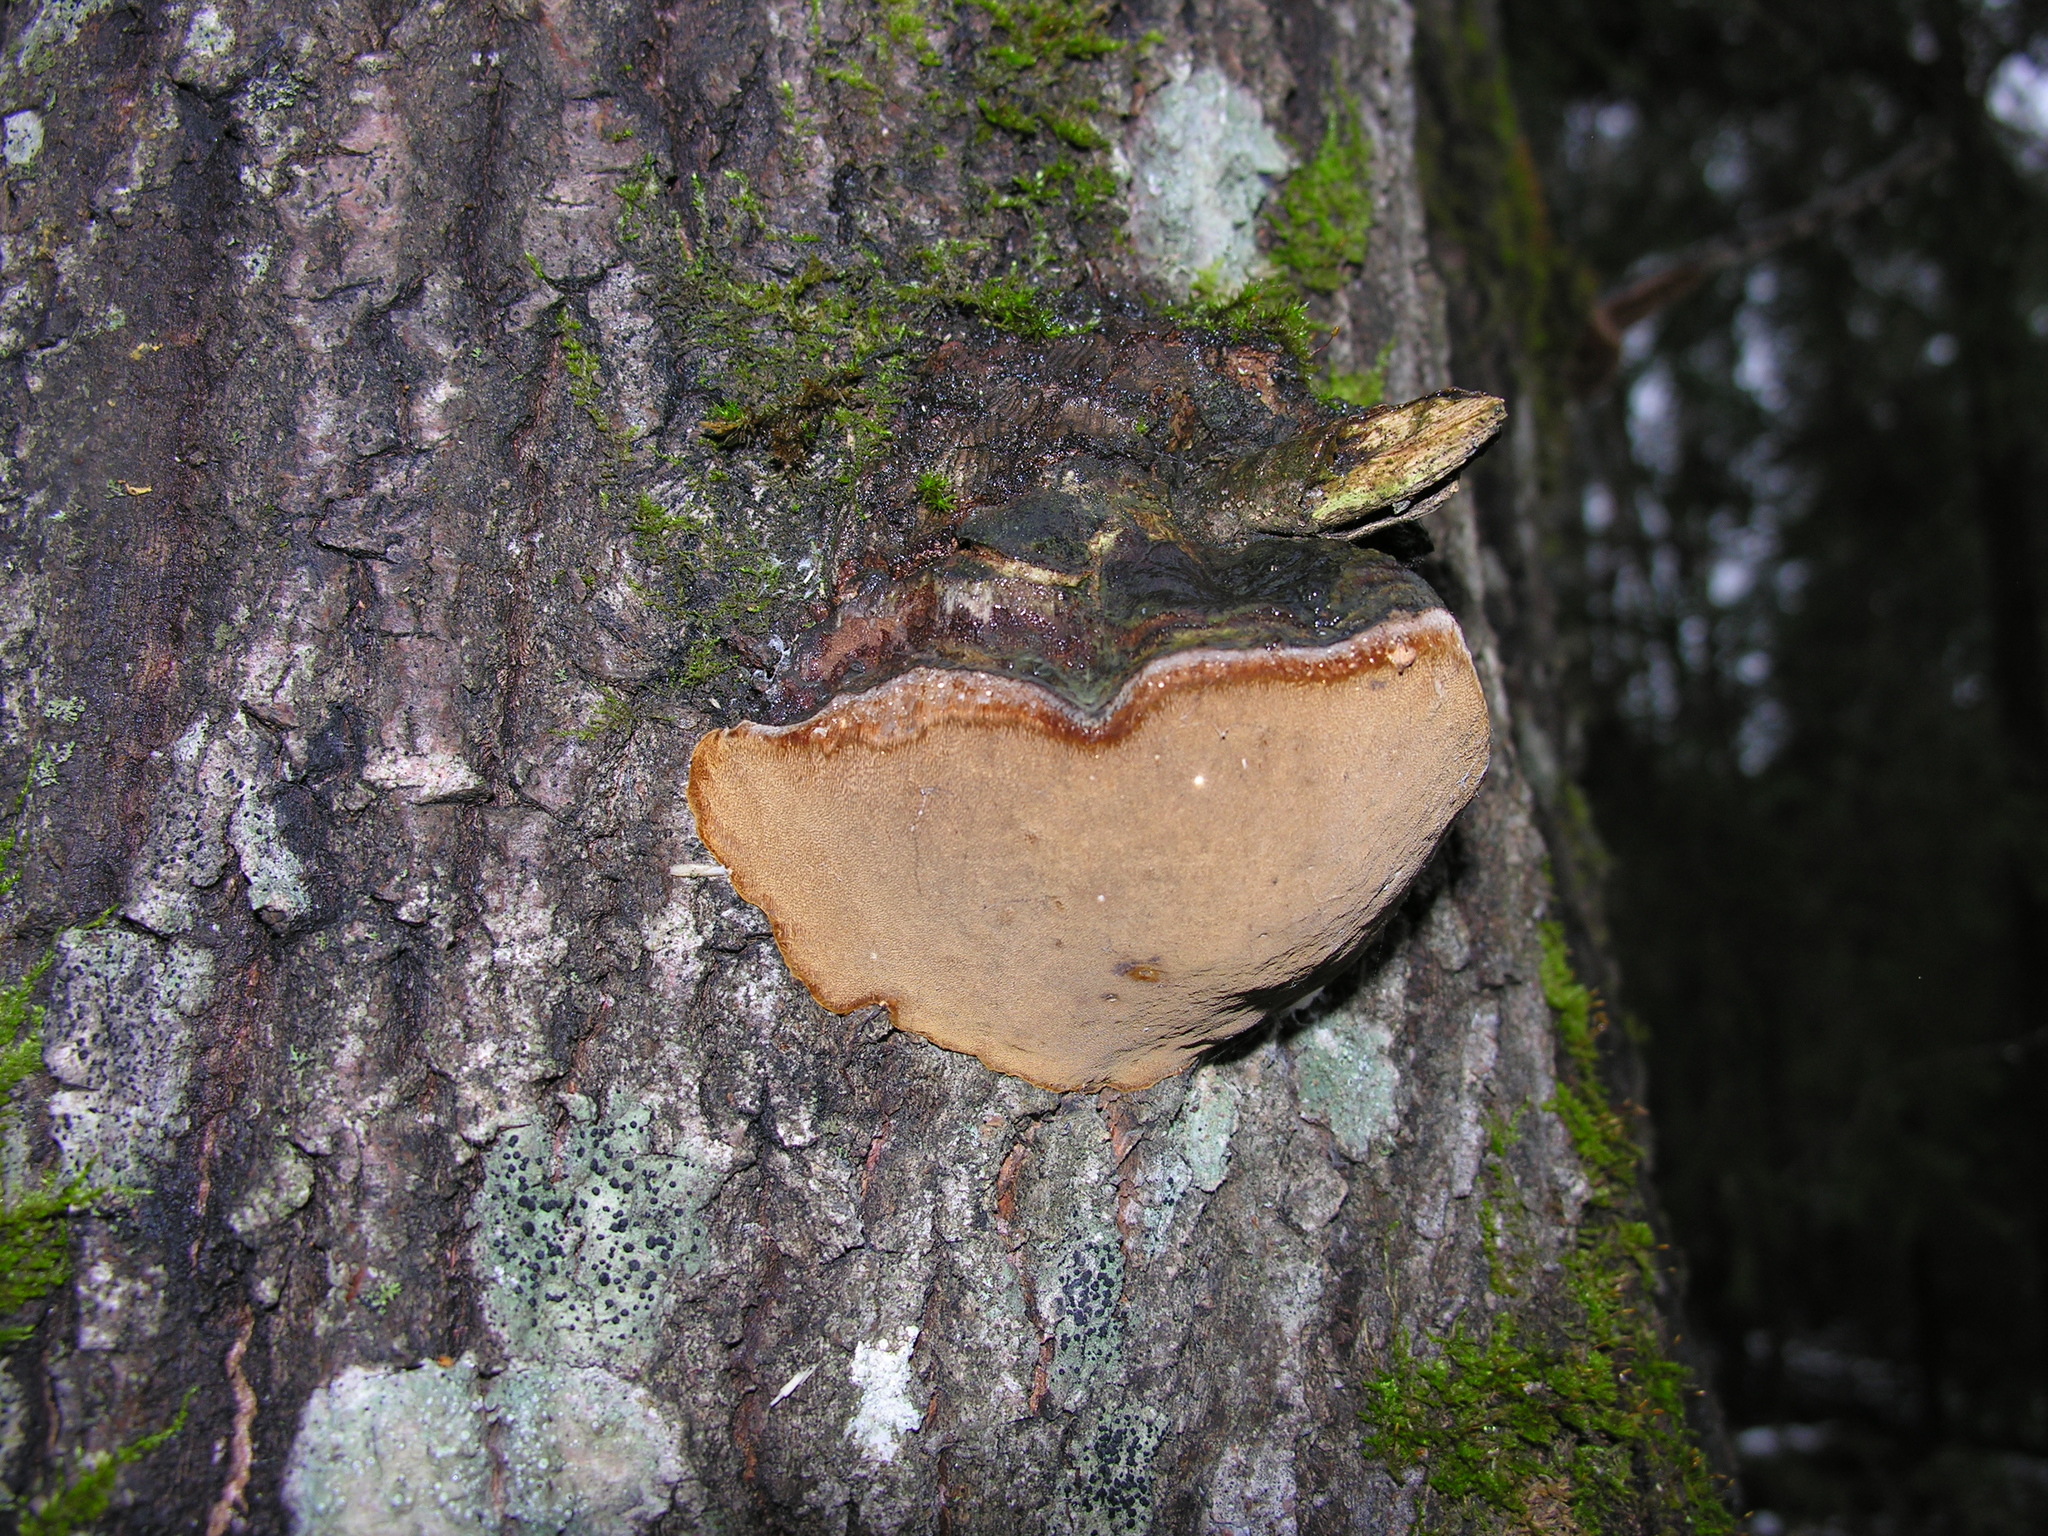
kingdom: Fungi
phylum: Basidiomycota
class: Agaricomycetes
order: Hymenochaetales
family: Hymenochaetaceae
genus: Phellinus
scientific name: Phellinus tremulae
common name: Aspen bracket
